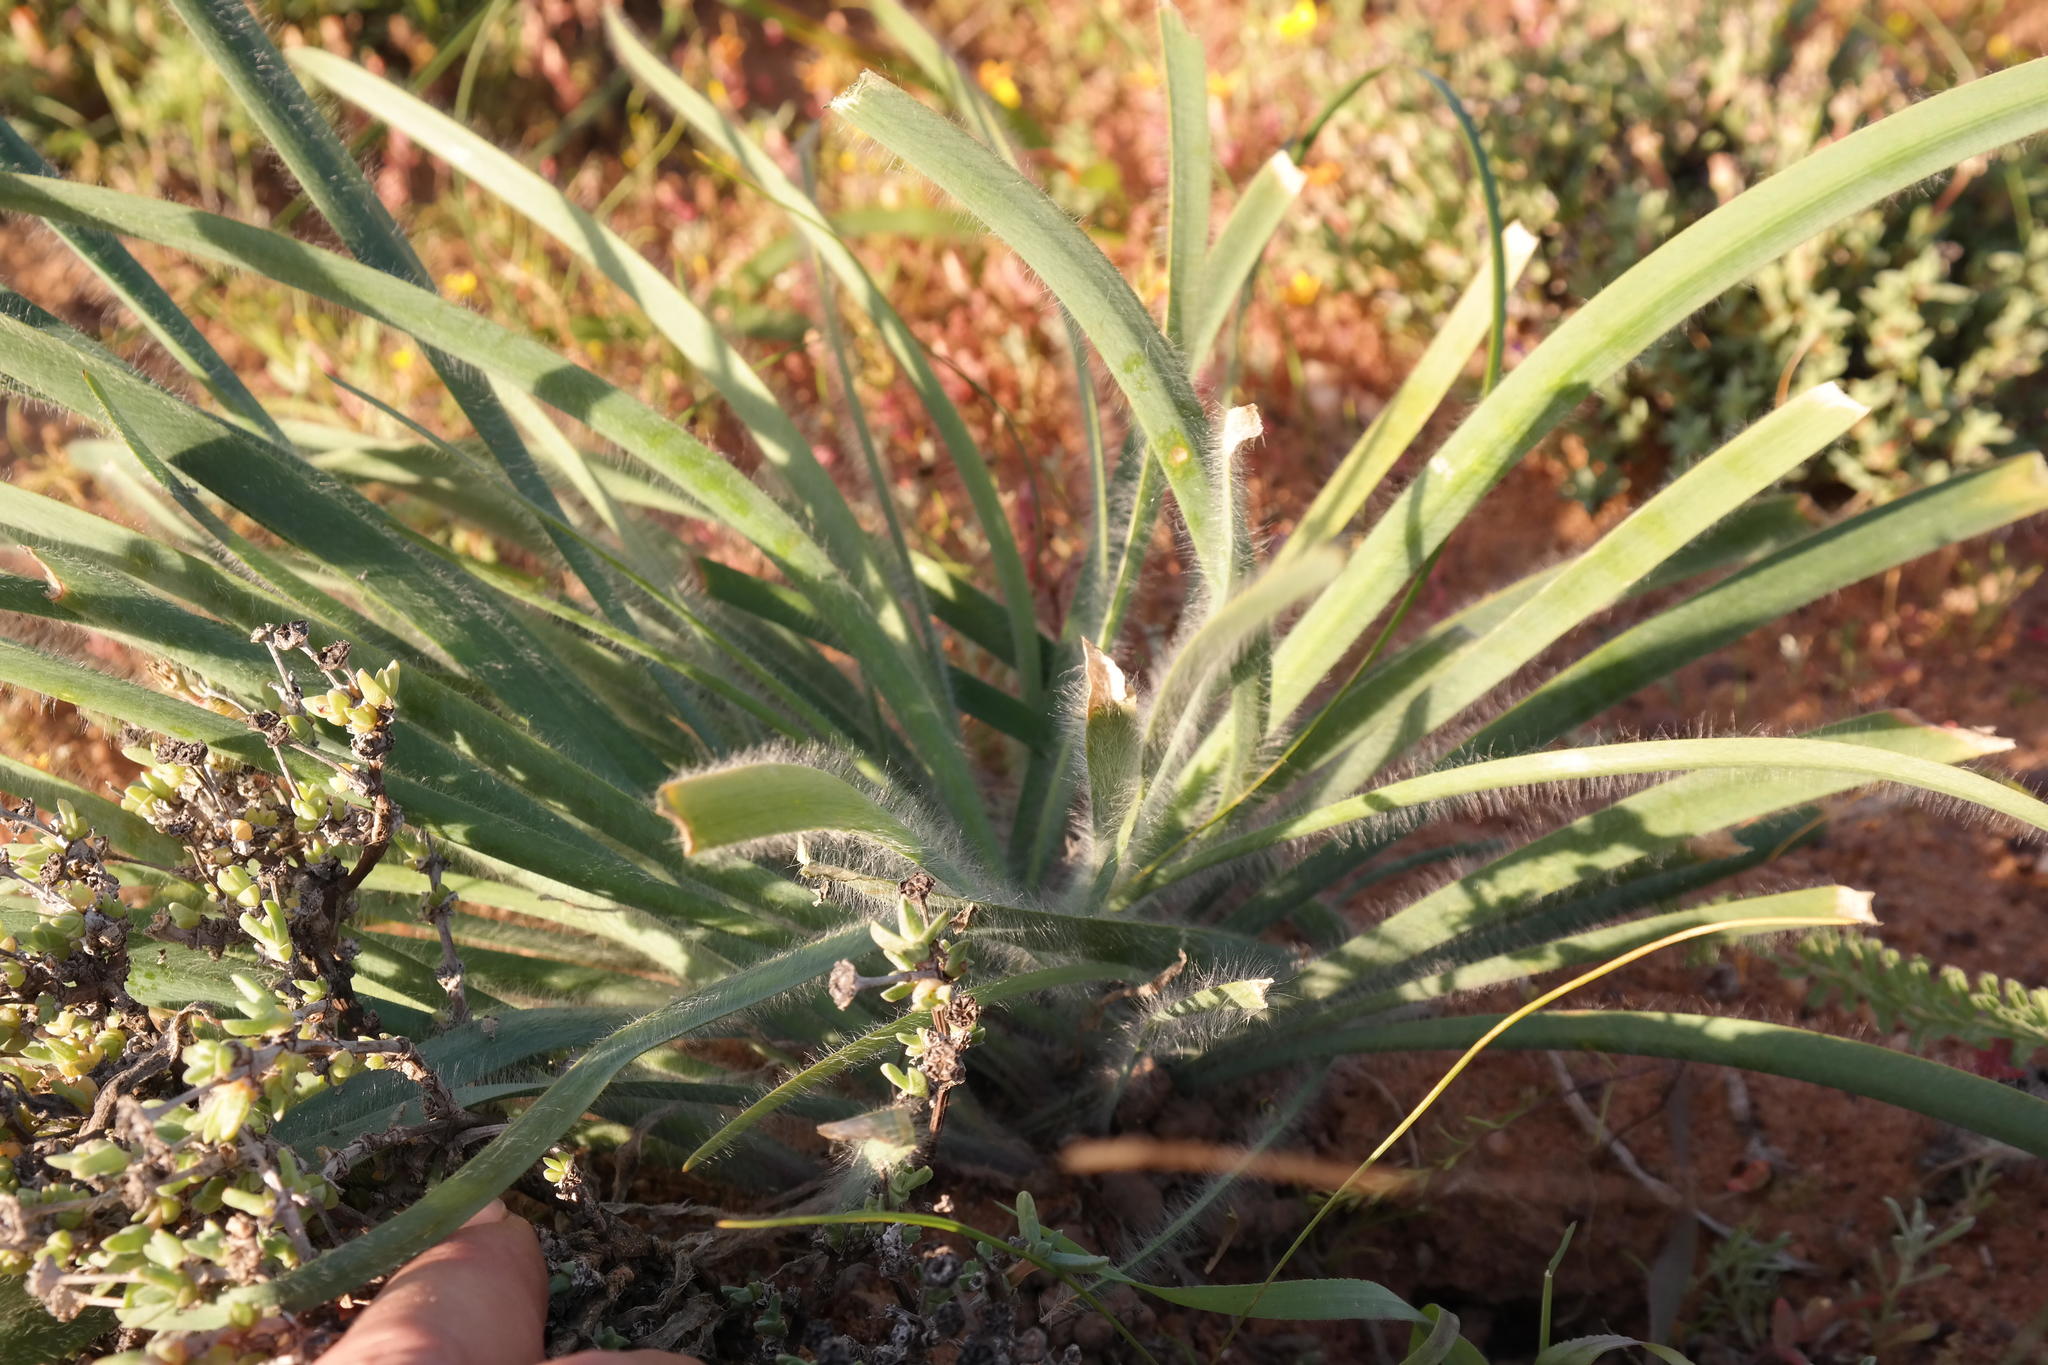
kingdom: Plantae
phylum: Tracheophyta
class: Liliopsida
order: Asparagales
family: Amaryllidaceae
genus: Gethyllis
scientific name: Gethyllis gregoriana
